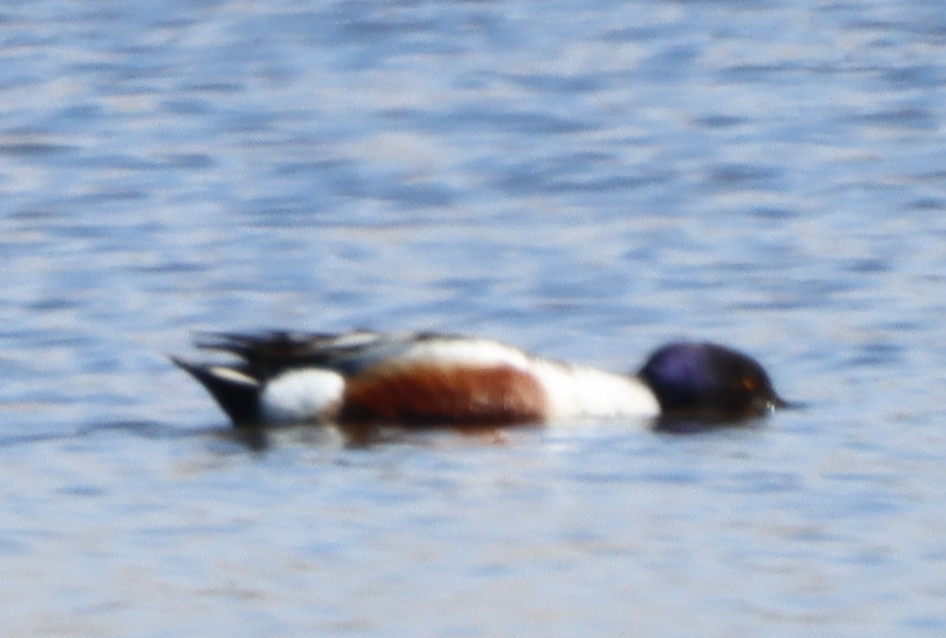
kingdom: Animalia
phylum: Chordata
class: Aves
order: Anseriformes
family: Anatidae
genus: Spatula
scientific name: Spatula clypeata
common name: Northern shoveler
